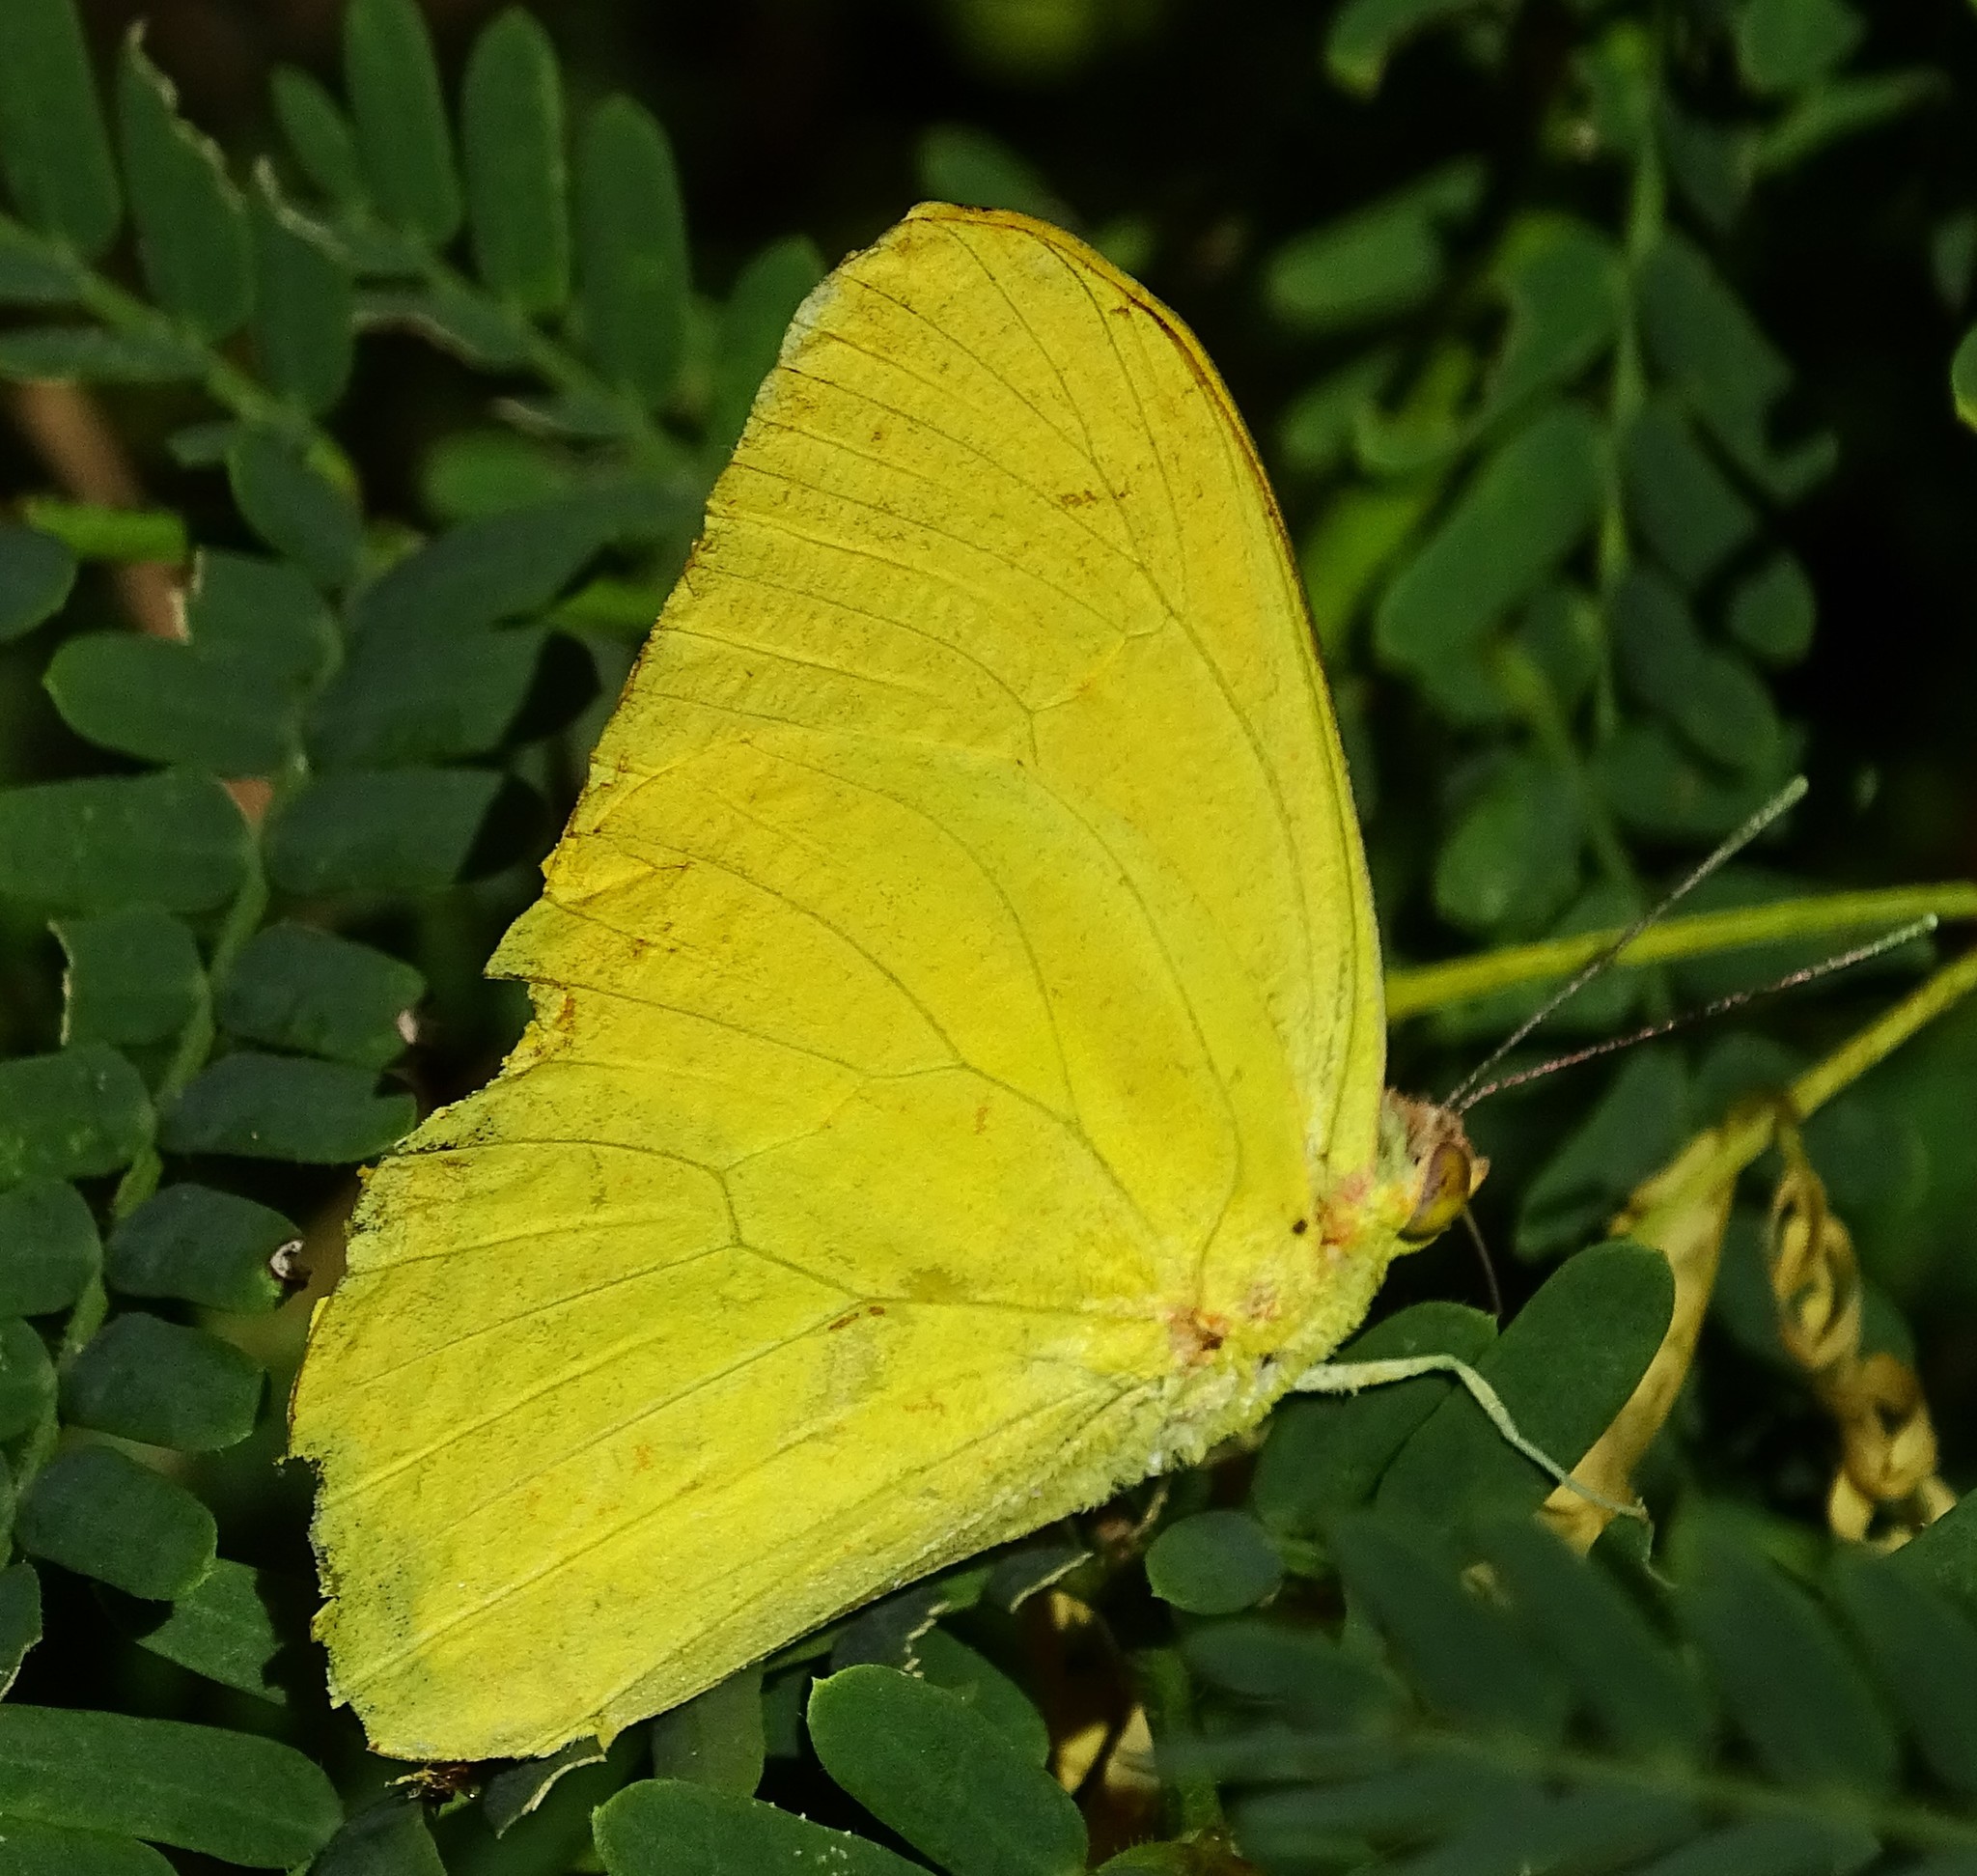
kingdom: Animalia
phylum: Arthropoda
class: Insecta
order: Lepidoptera
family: Pieridae
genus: Phoebis
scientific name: Phoebis agarithe
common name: Large orange sulphur
